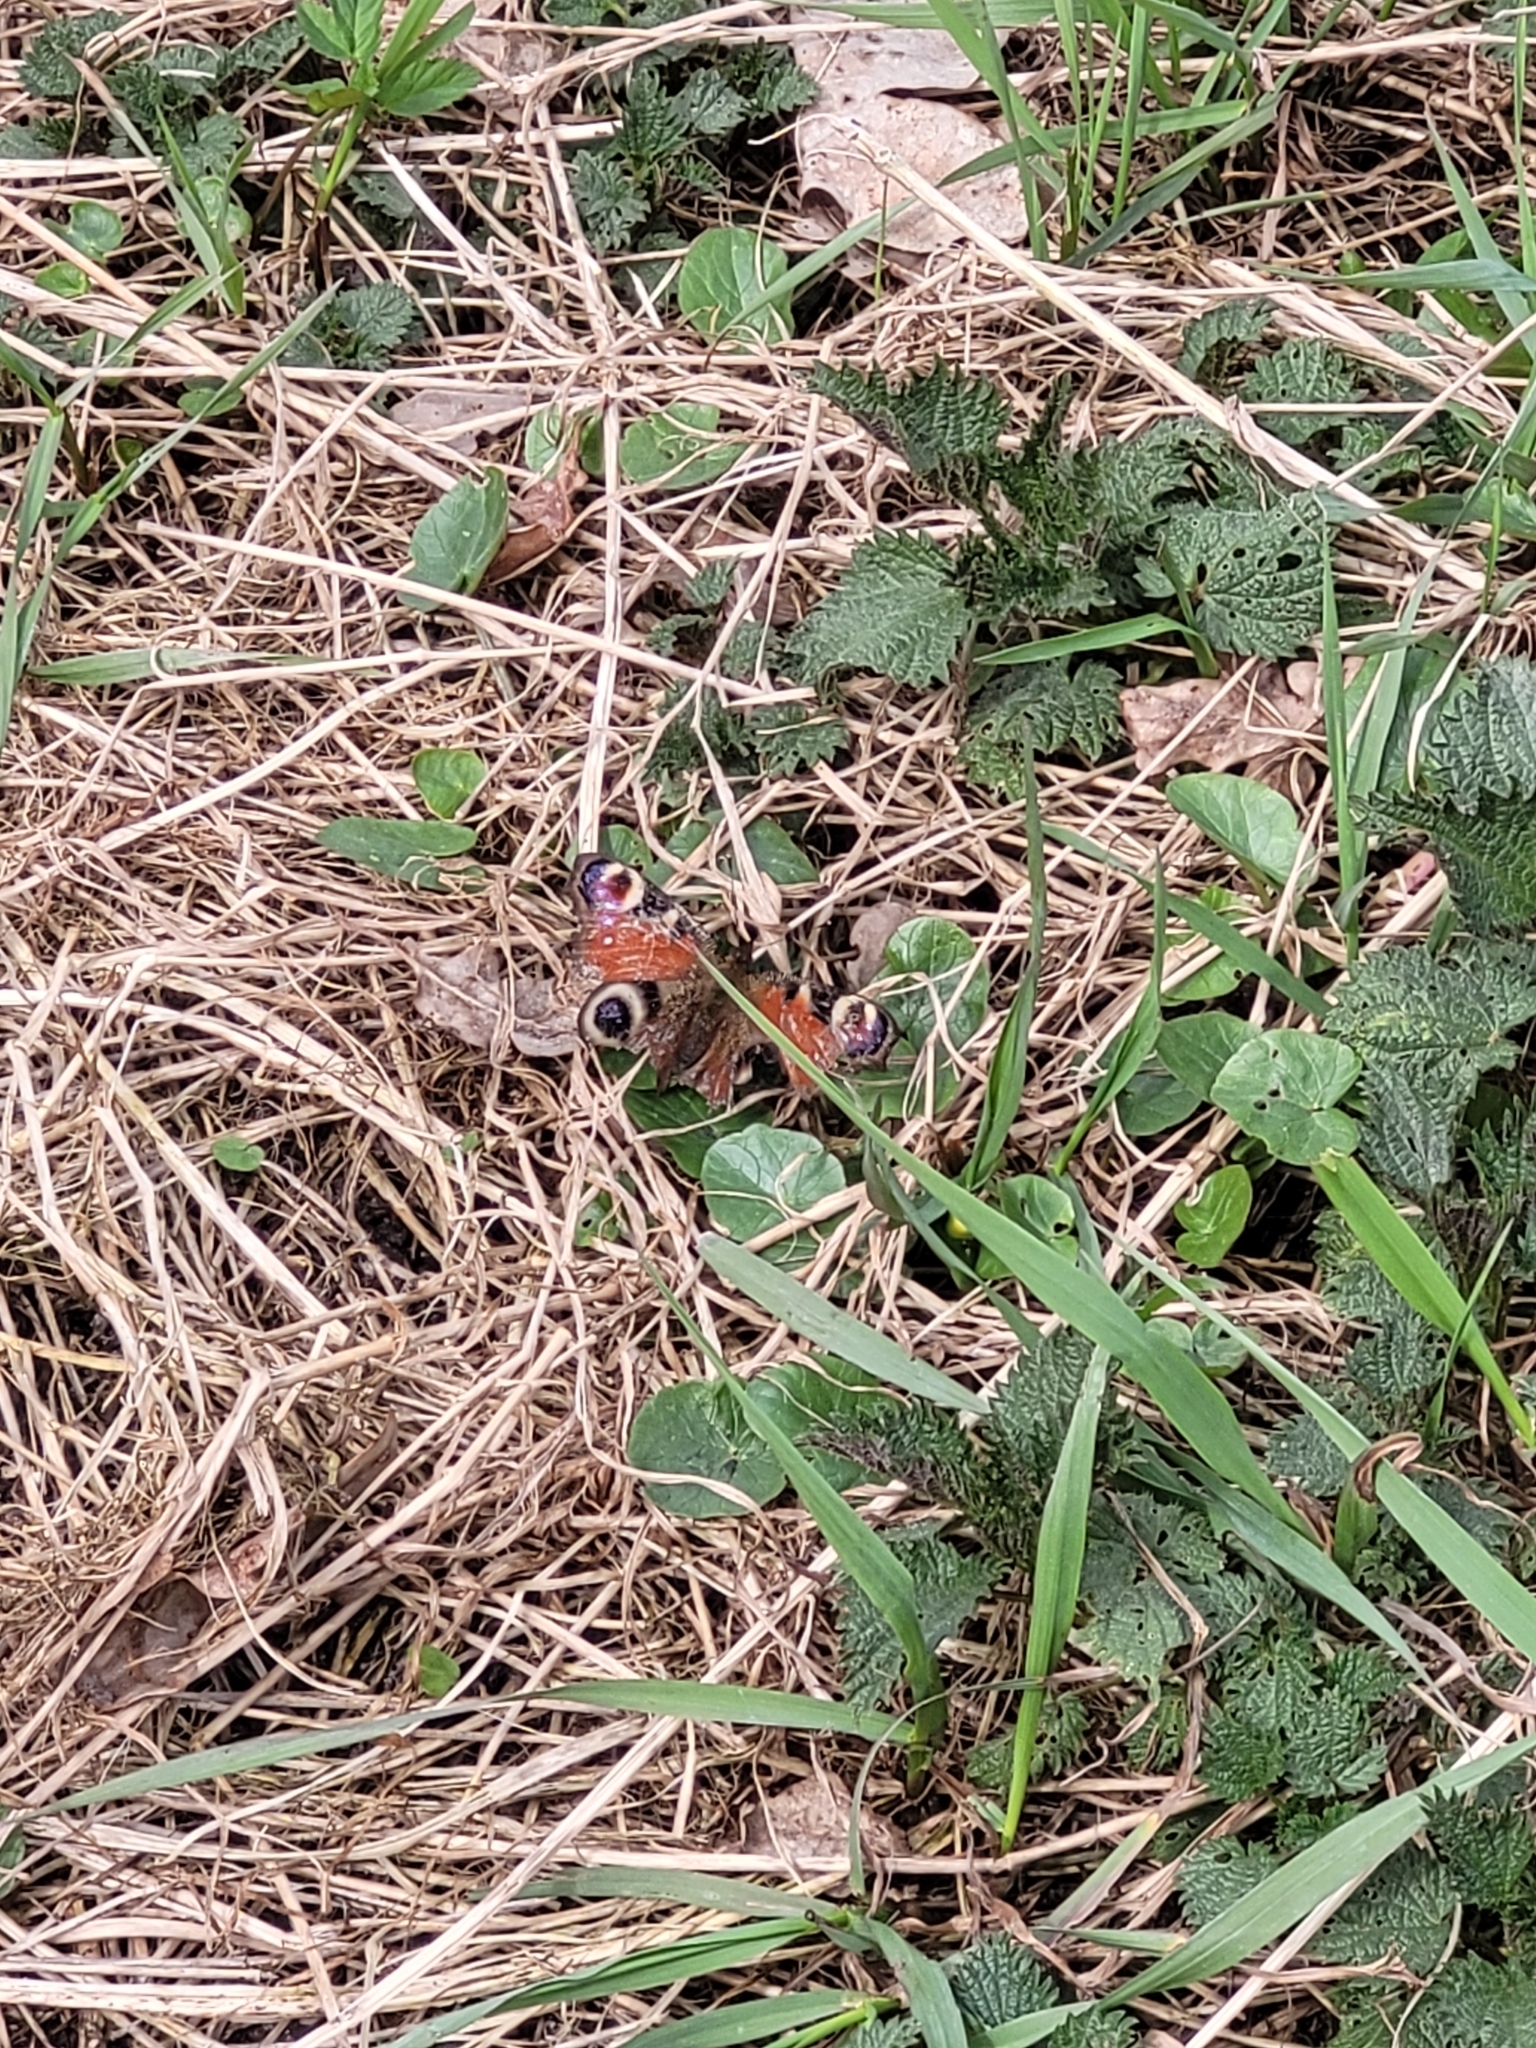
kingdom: Animalia
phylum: Arthropoda
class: Insecta
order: Lepidoptera
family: Nymphalidae
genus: Aglais
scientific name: Aglais io
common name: Peacock
